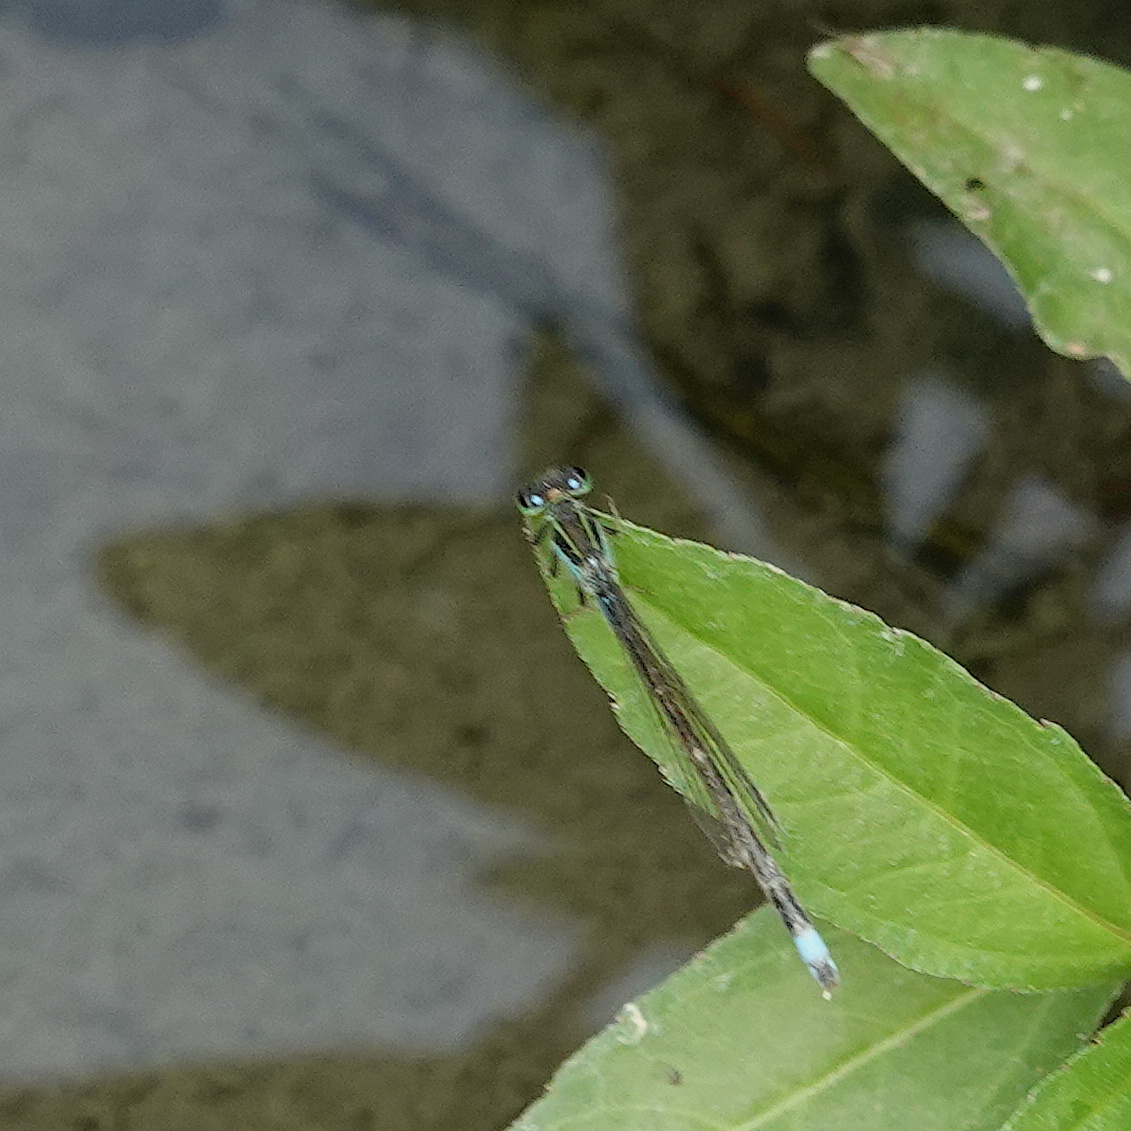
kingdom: Animalia
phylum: Arthropoda
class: Insecta
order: Odonata
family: Coenagrionidae
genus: Ischnura
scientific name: Ischnura senegalensis
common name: Tropical bluetail
